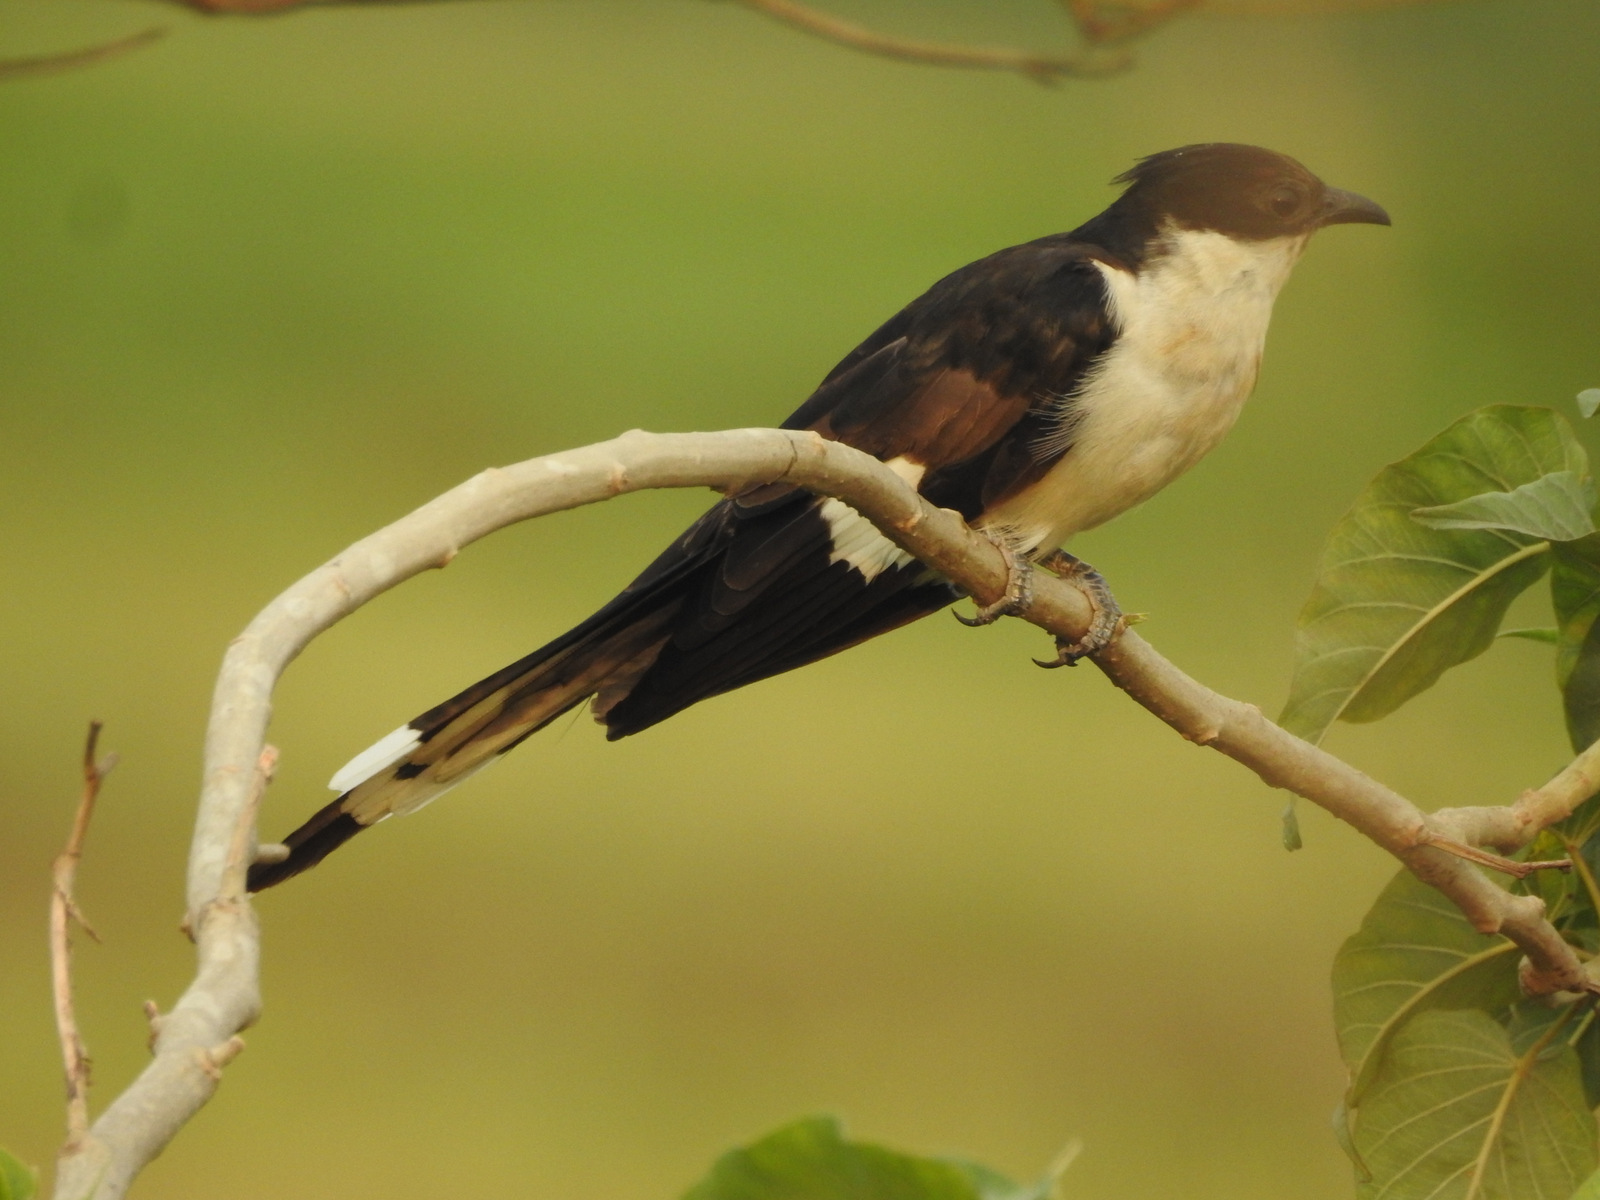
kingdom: Animalia
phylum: Chordata
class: Aves
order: Cuculiformes
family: Cuculidae
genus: Clamator
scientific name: Clamator jacobinus
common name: Jacobin cuckoo
